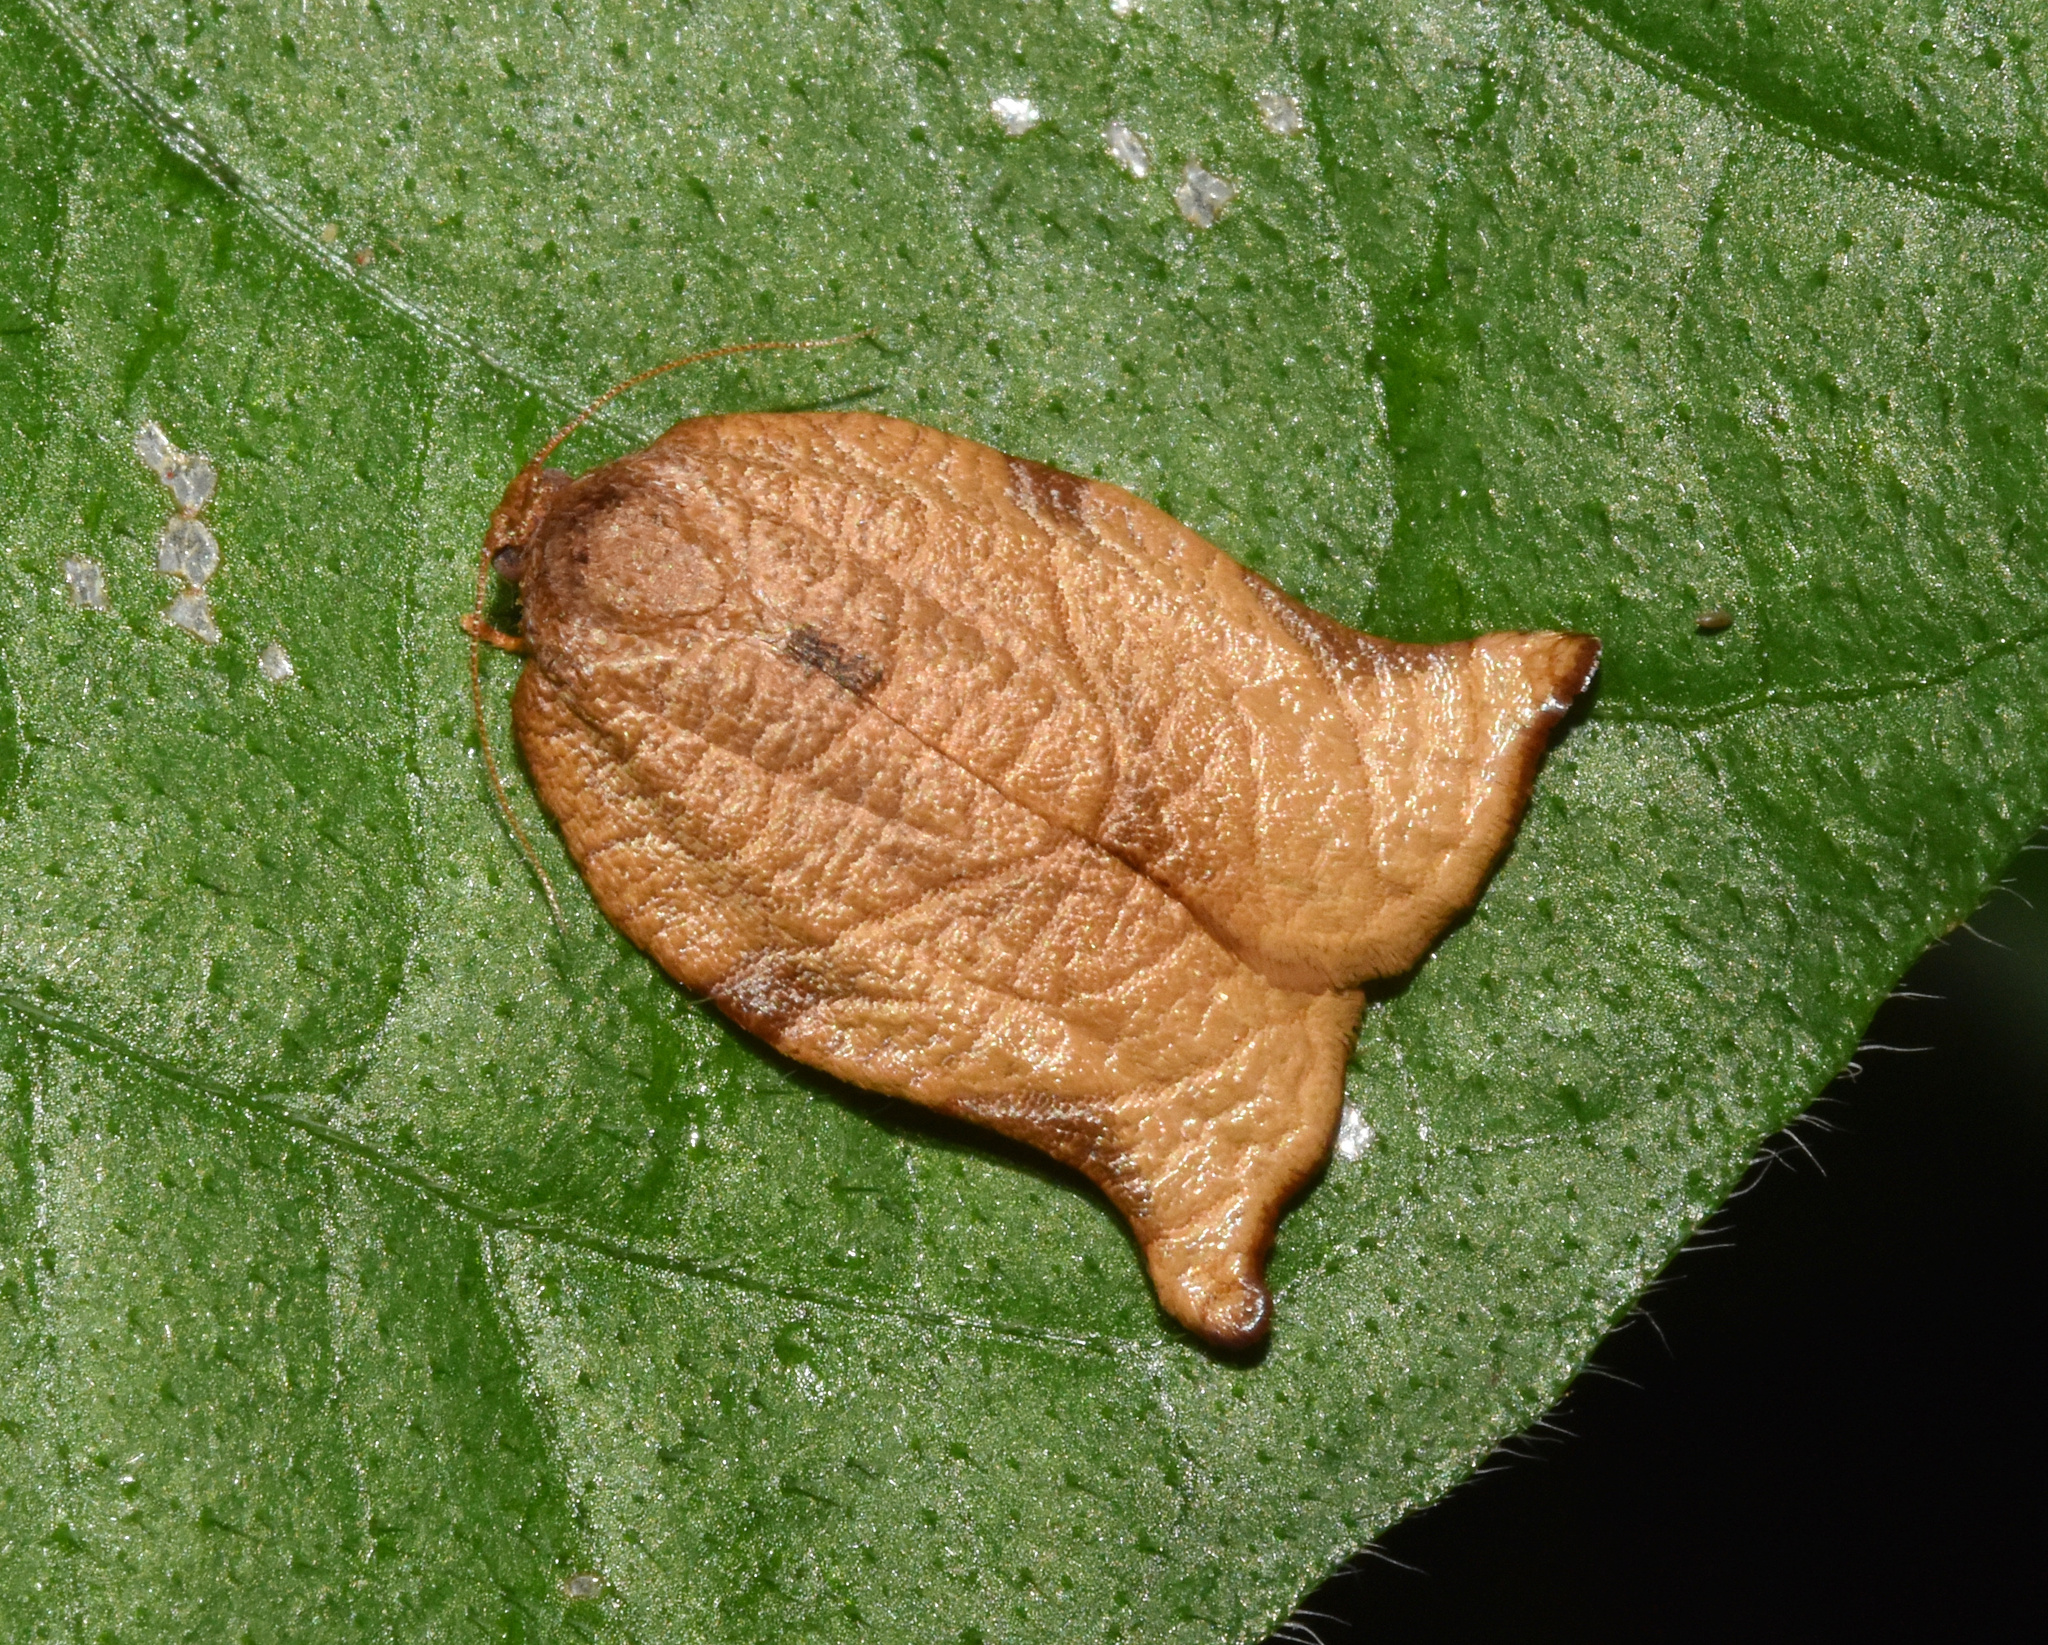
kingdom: Animalia
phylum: Arthropoda
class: Insecta
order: Lepidoptera
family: Tortricidae
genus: Choristoneura
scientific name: Choristoneura heliaspis
